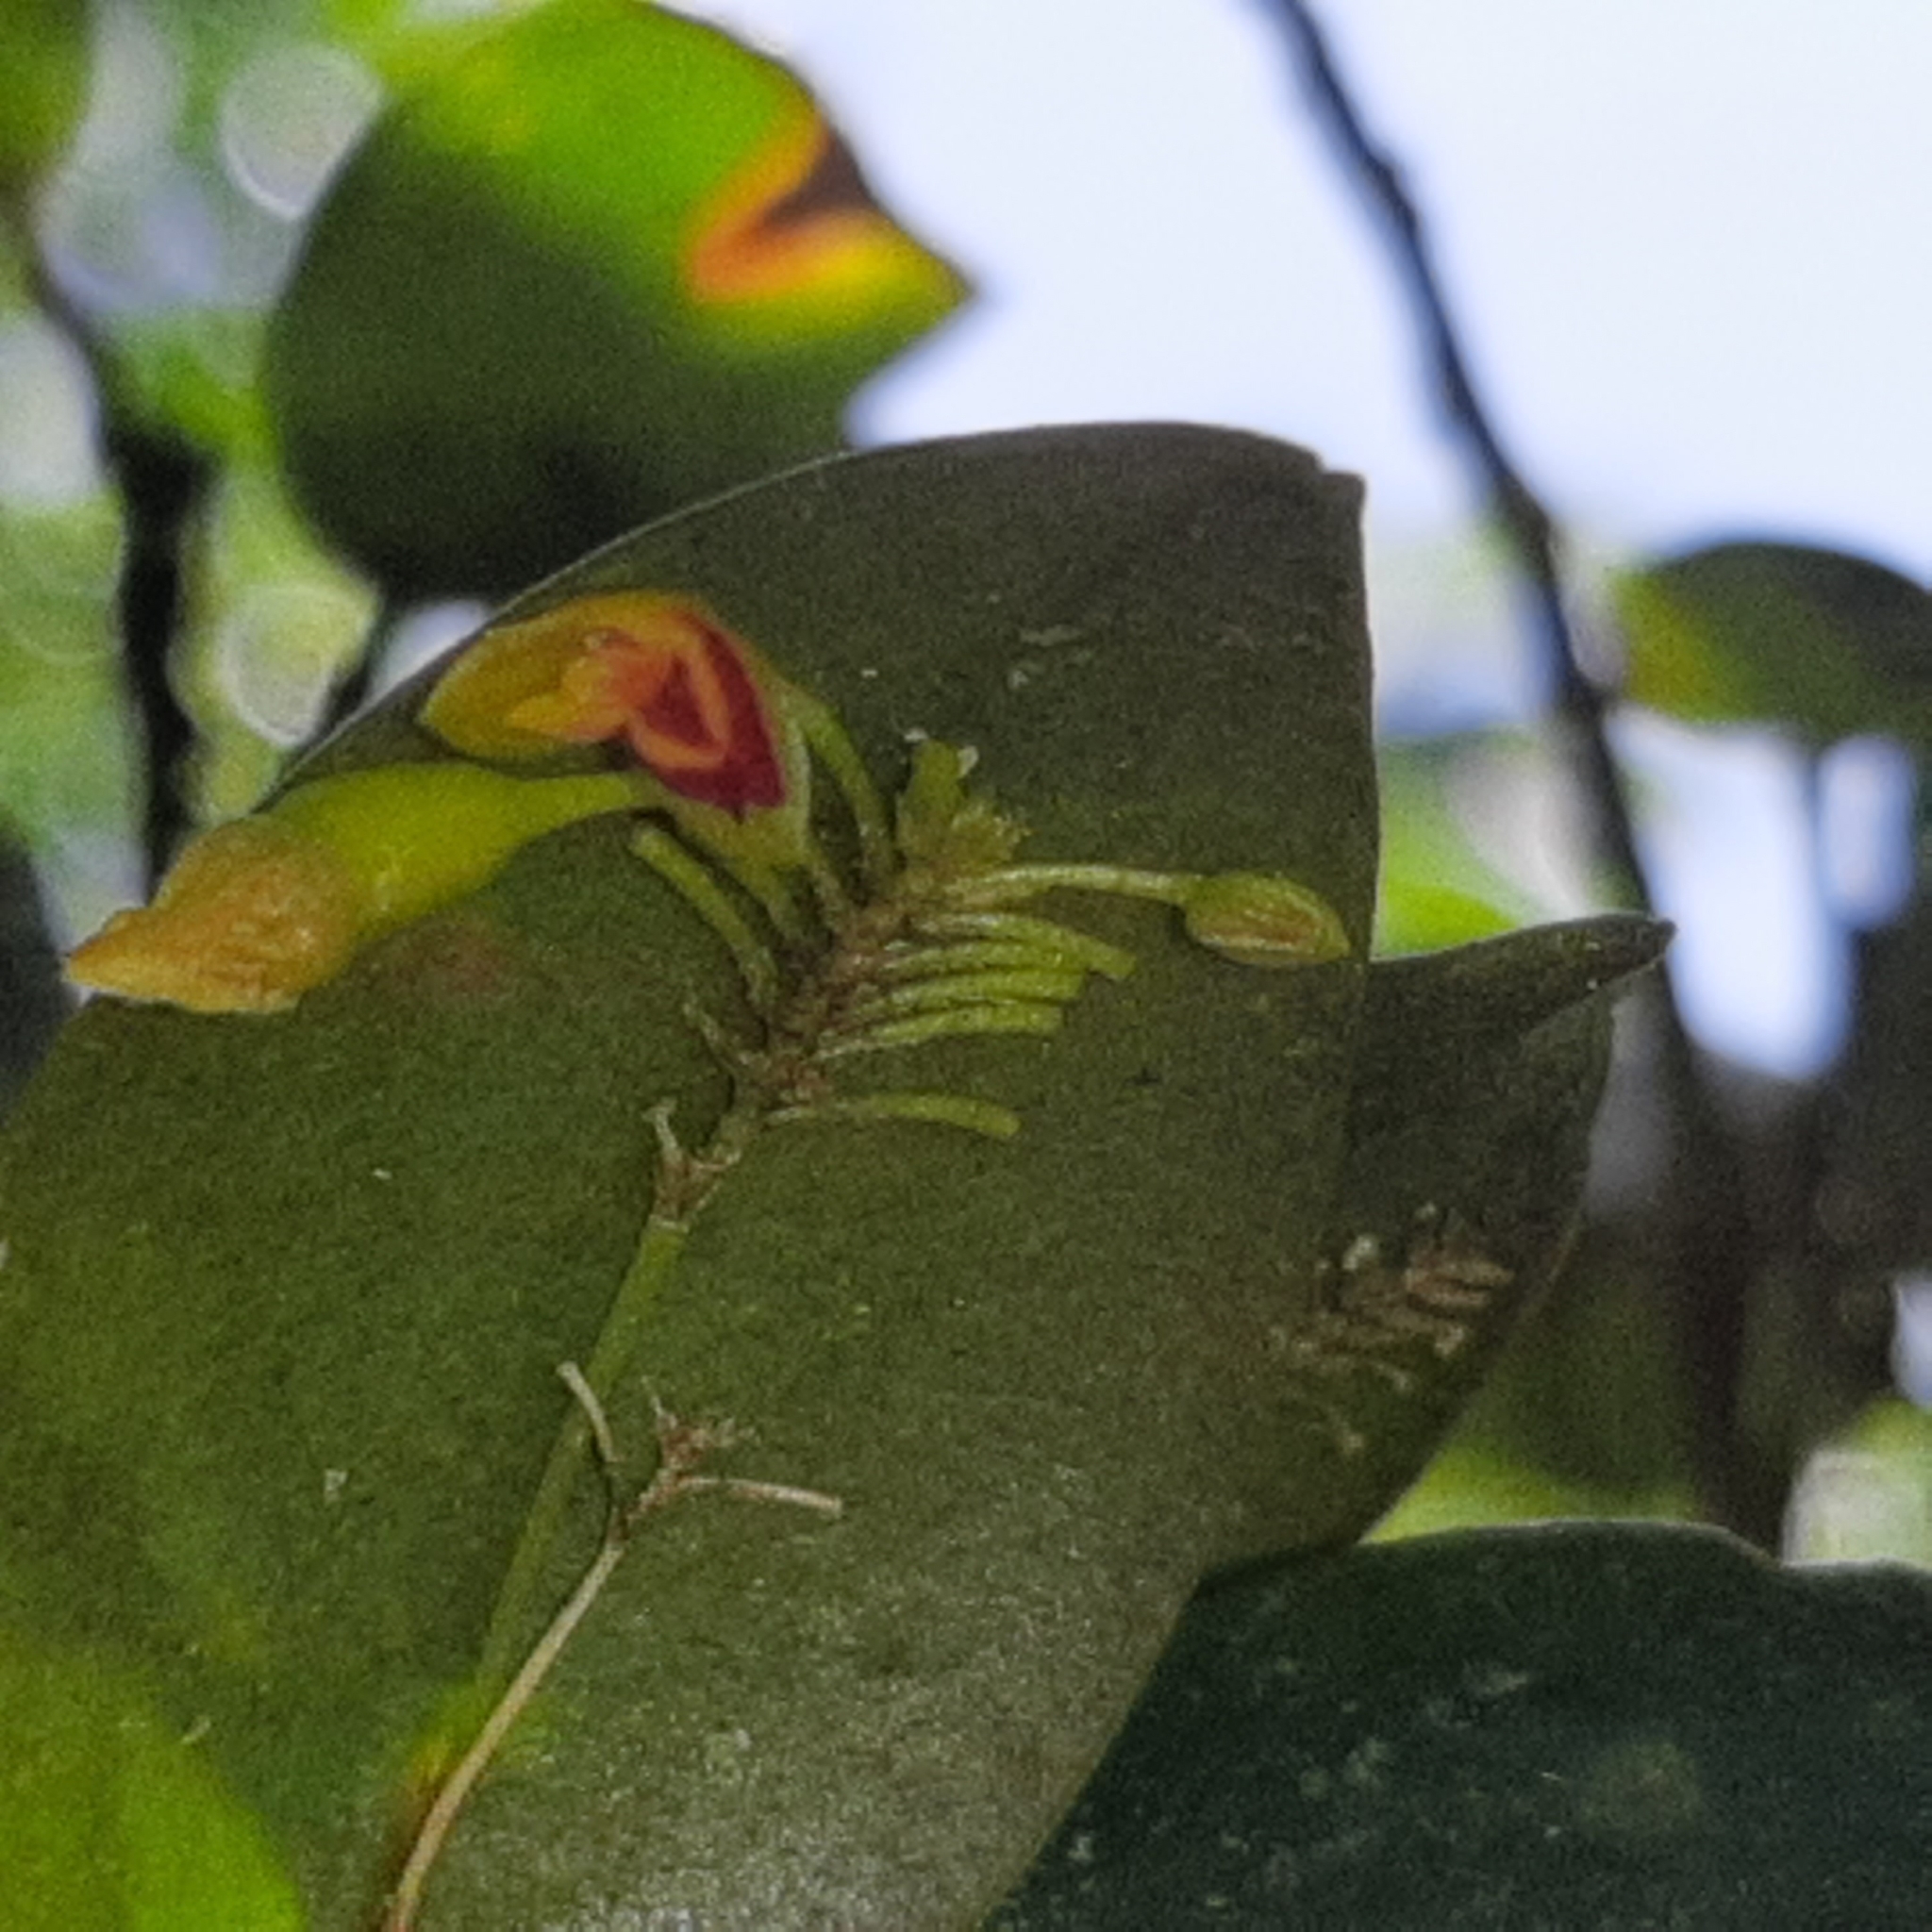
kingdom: Plantae
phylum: Tracheophyta
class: Liliopsida
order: Asparagales
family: Orchidaceae
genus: Lepanthes
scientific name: Lepanthes disticha
